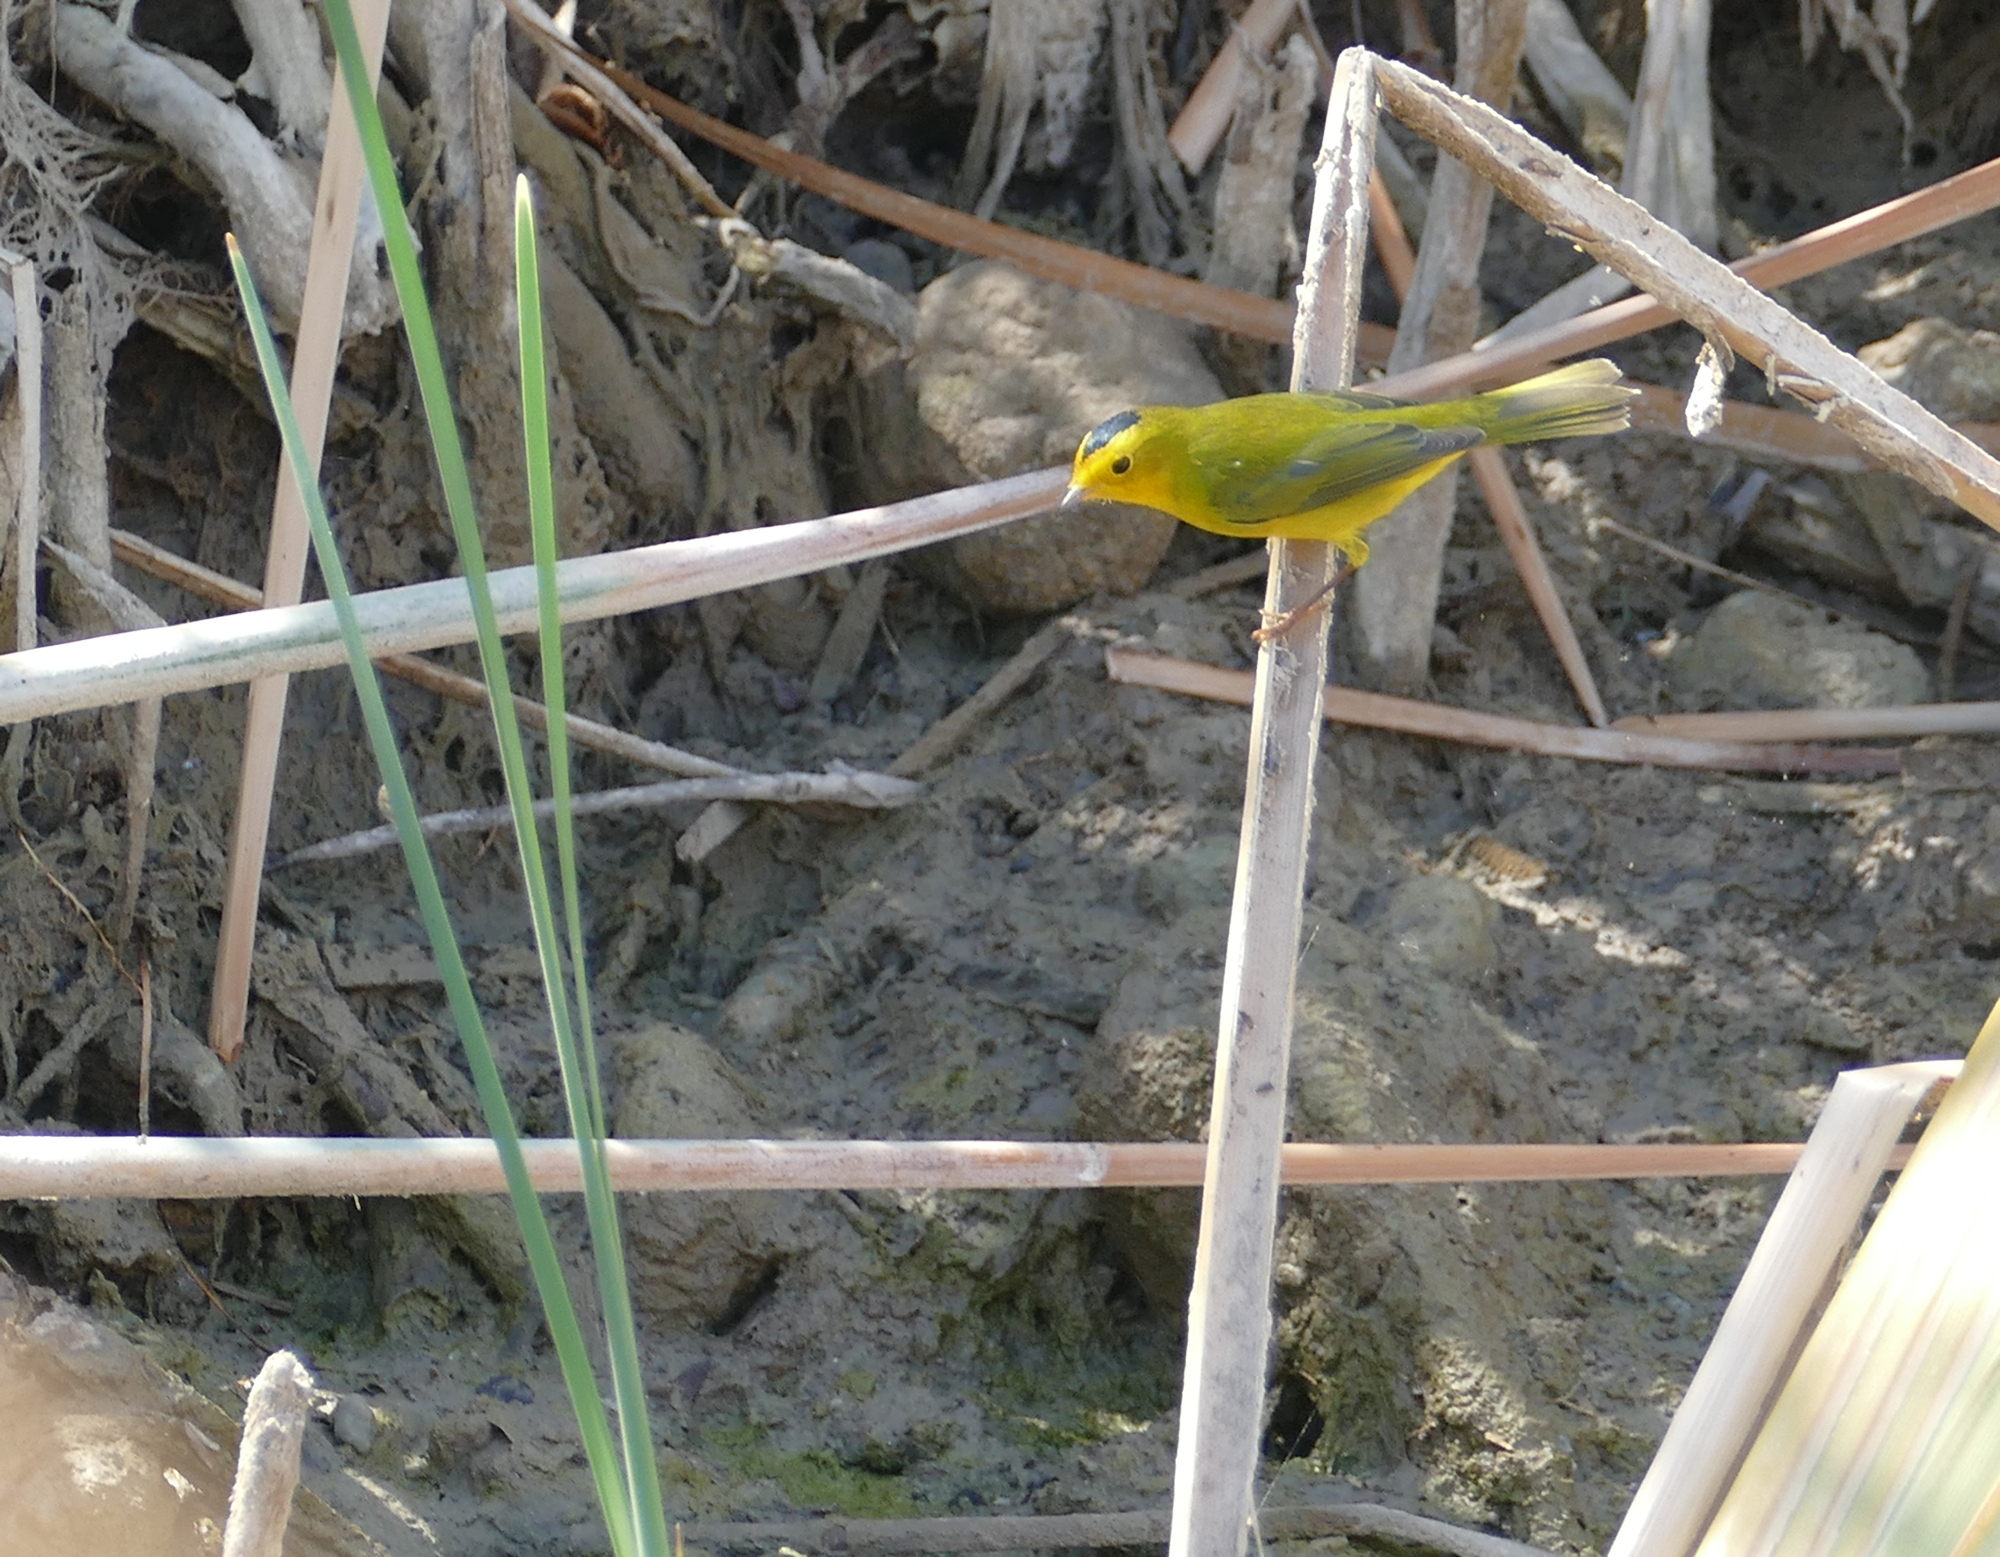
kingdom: Animalia
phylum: Chordata
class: Aves
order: Passeriformes
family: Parulidae
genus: Cardellina
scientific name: Cardellina pusilla
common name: Wilson's warbler
